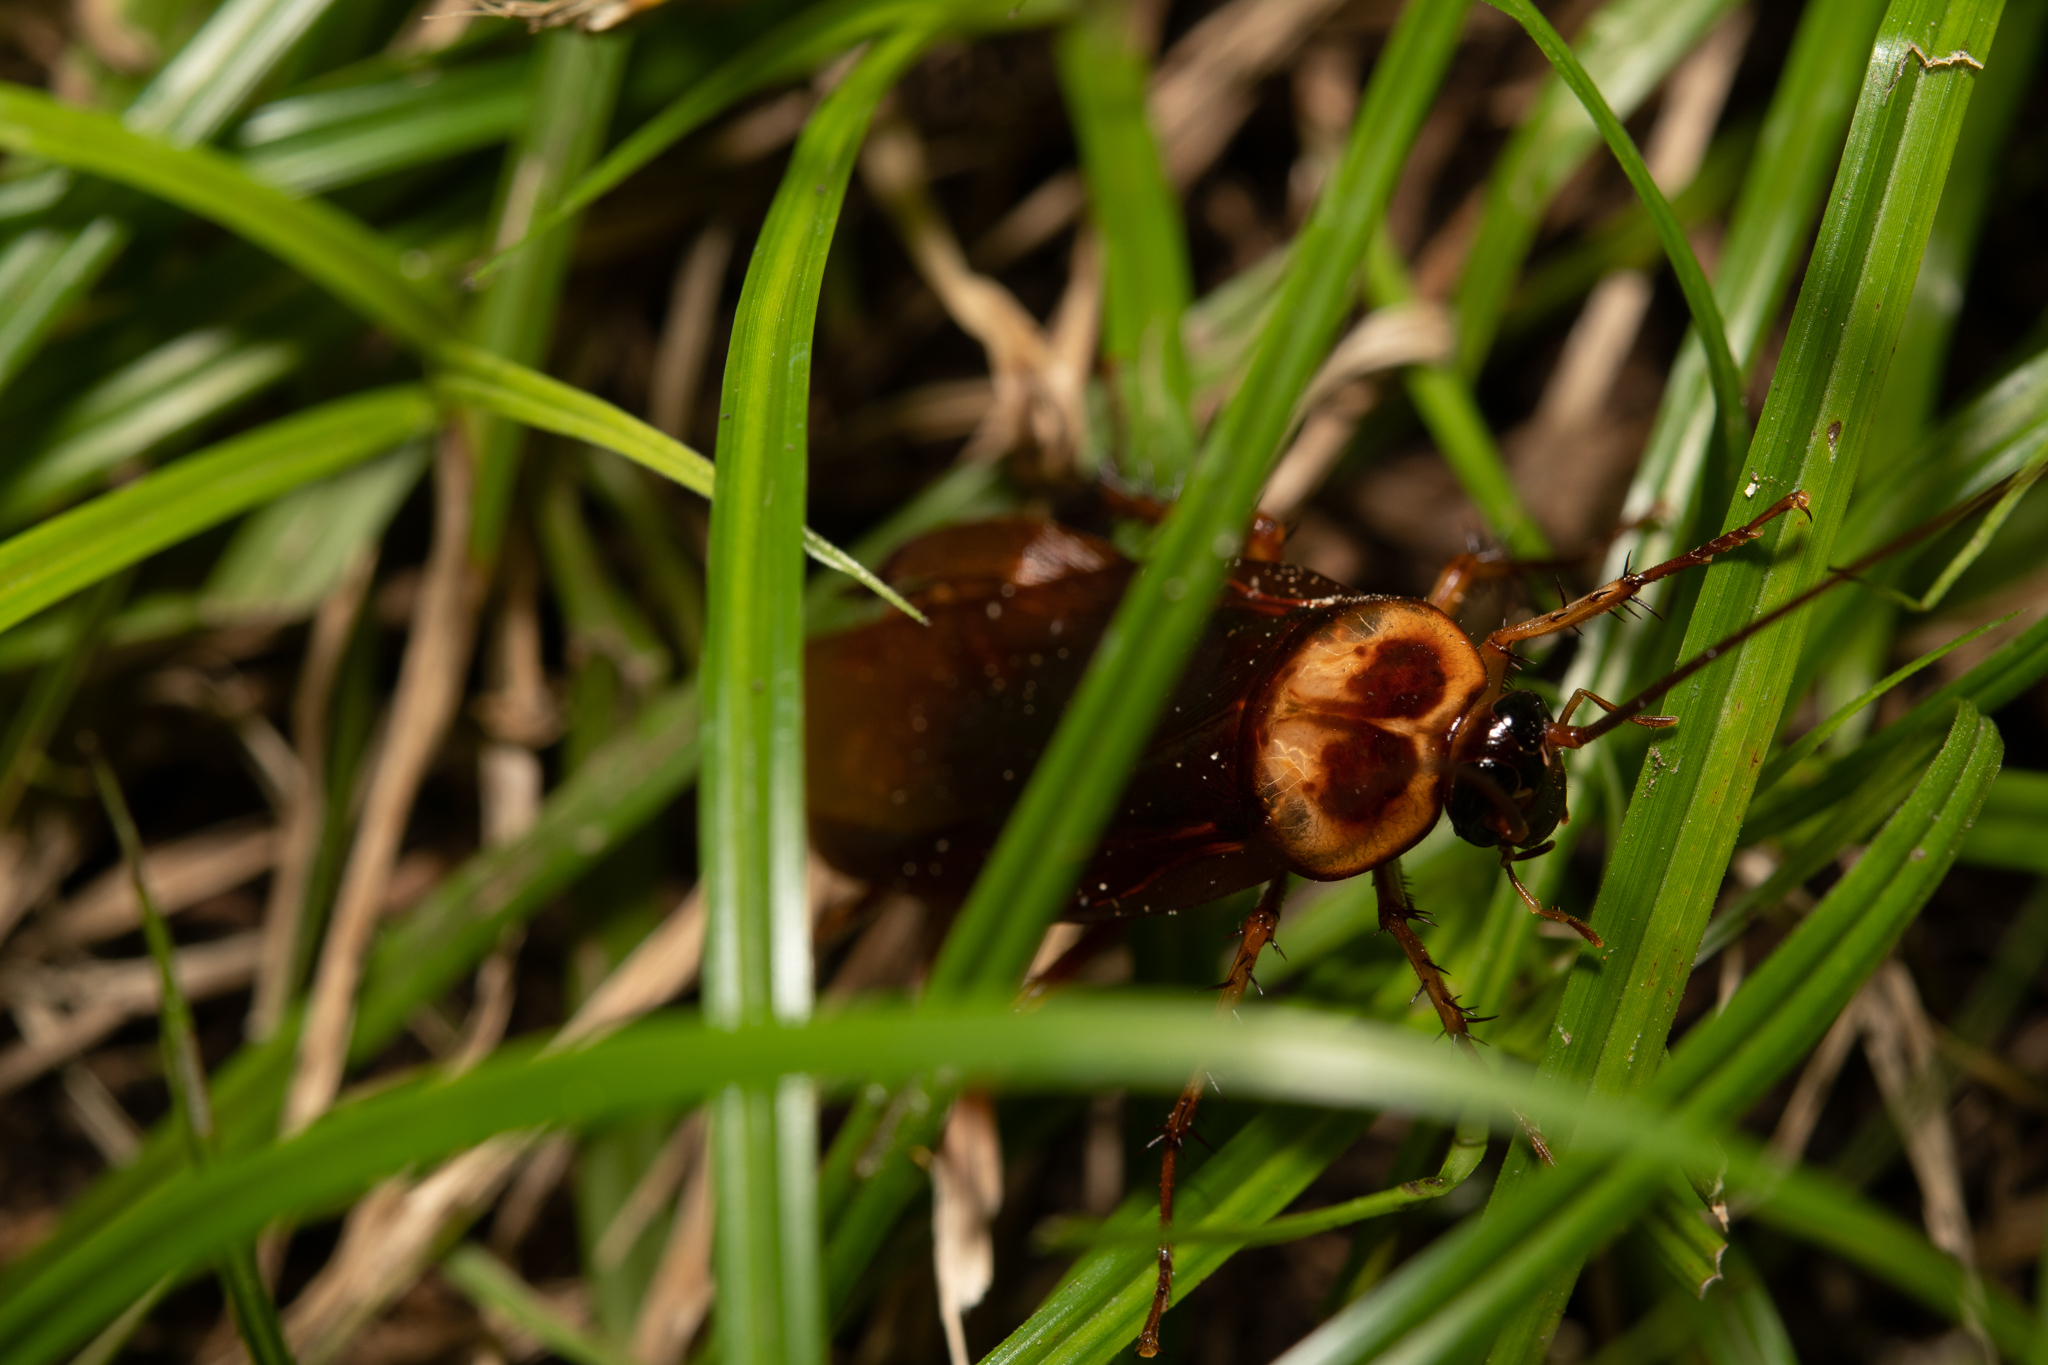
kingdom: Animalia
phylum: Arthropoda
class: Insecta
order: Blattodea
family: Blattidae
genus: Periplaneta
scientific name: Periplaneta americana
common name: American cockroach
